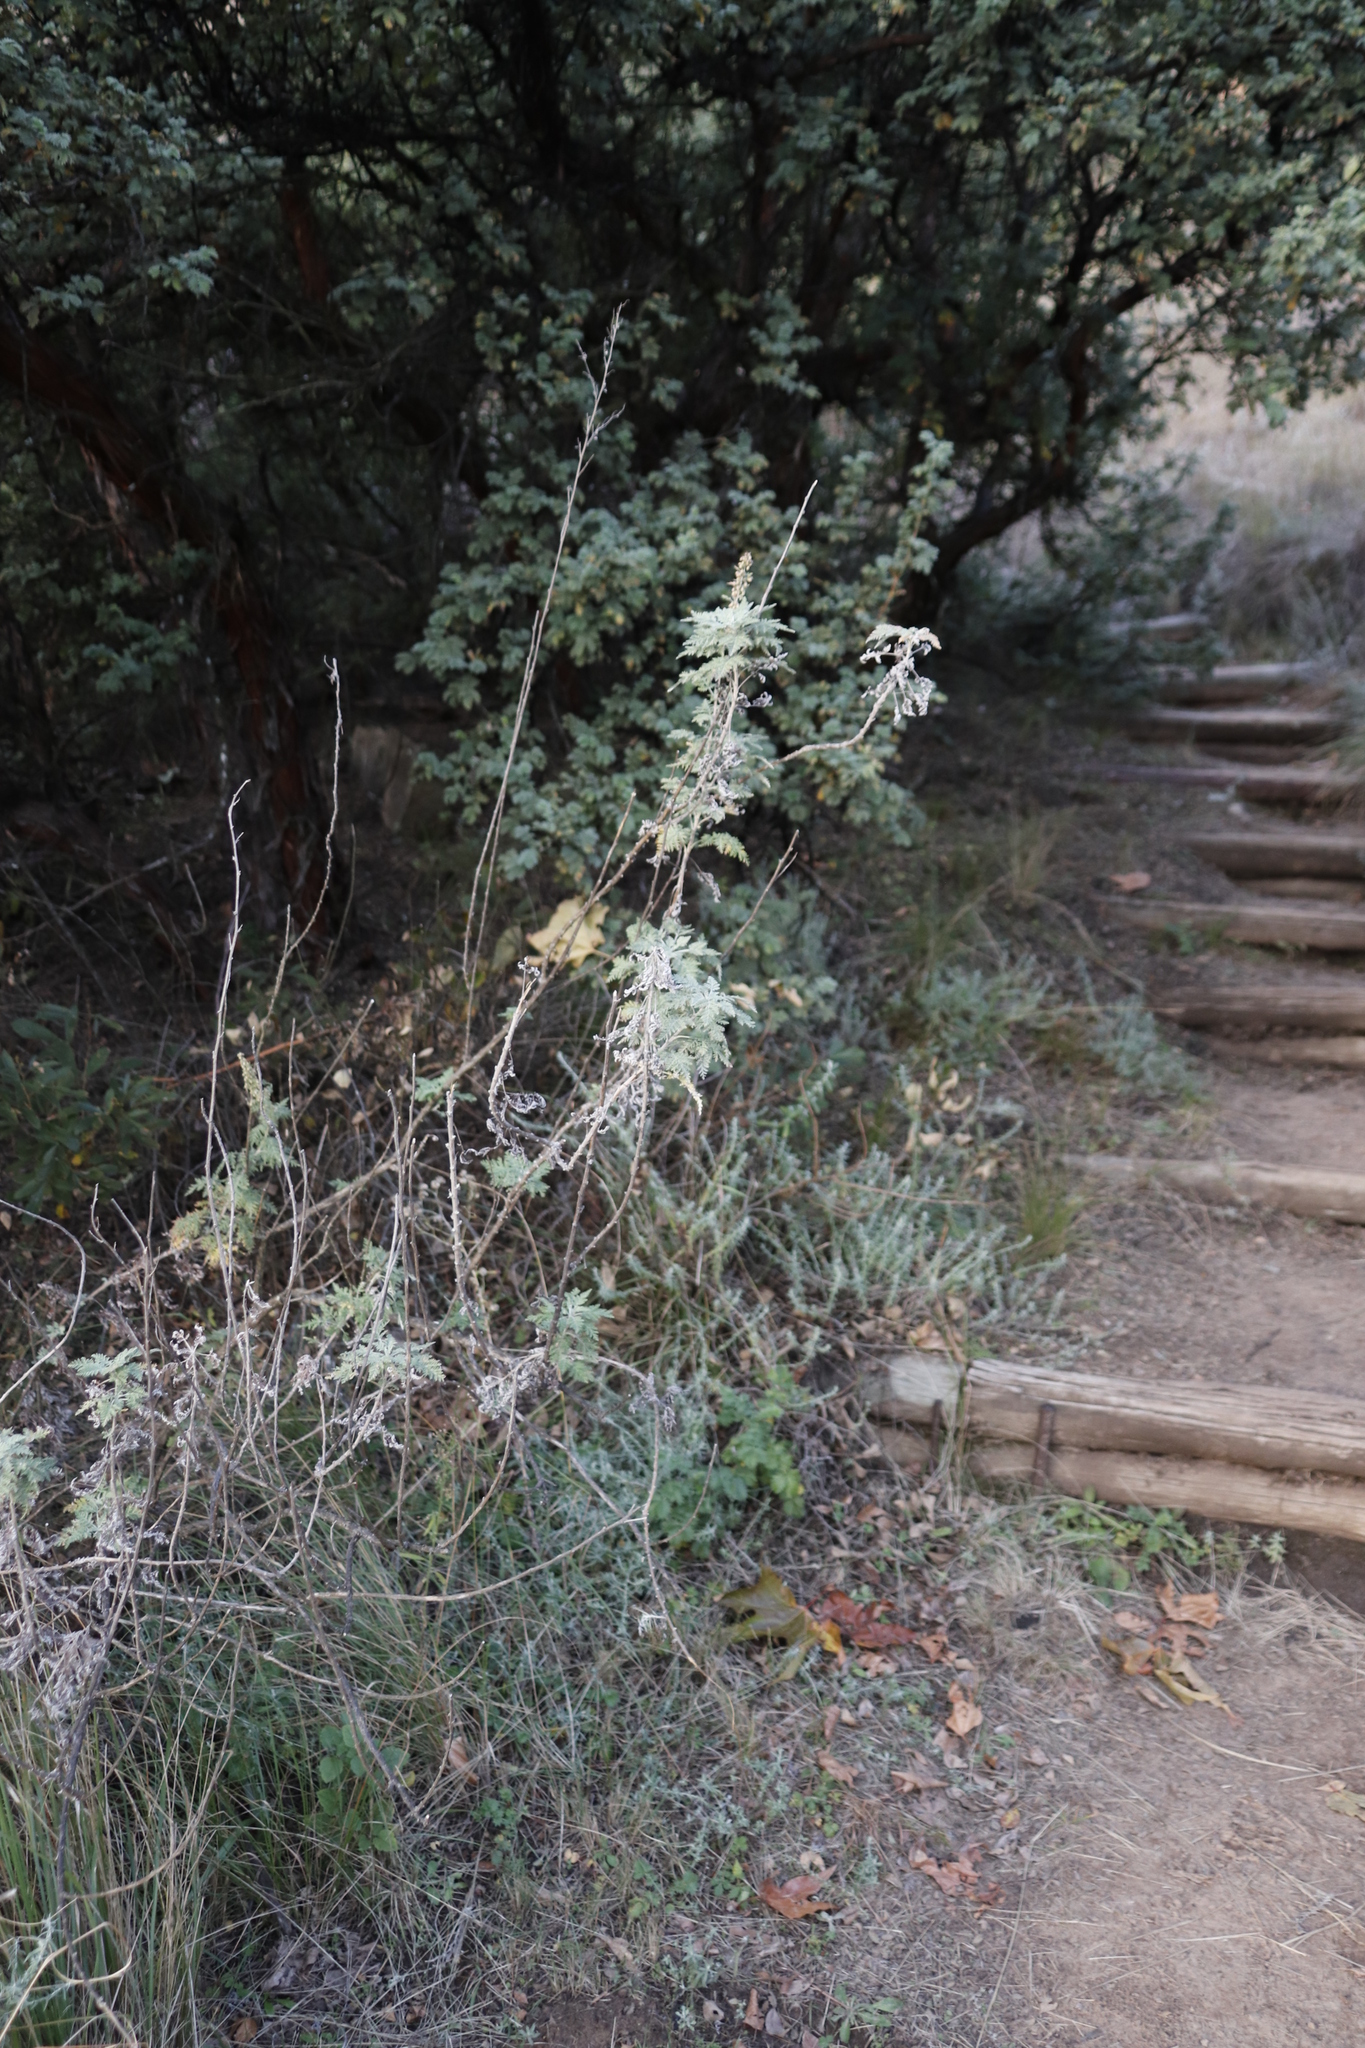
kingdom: Plantae
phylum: Tracheophyta
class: Magnoliopsida
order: Asterales
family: Asteraceae
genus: Artemisia
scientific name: Artemisia afra
